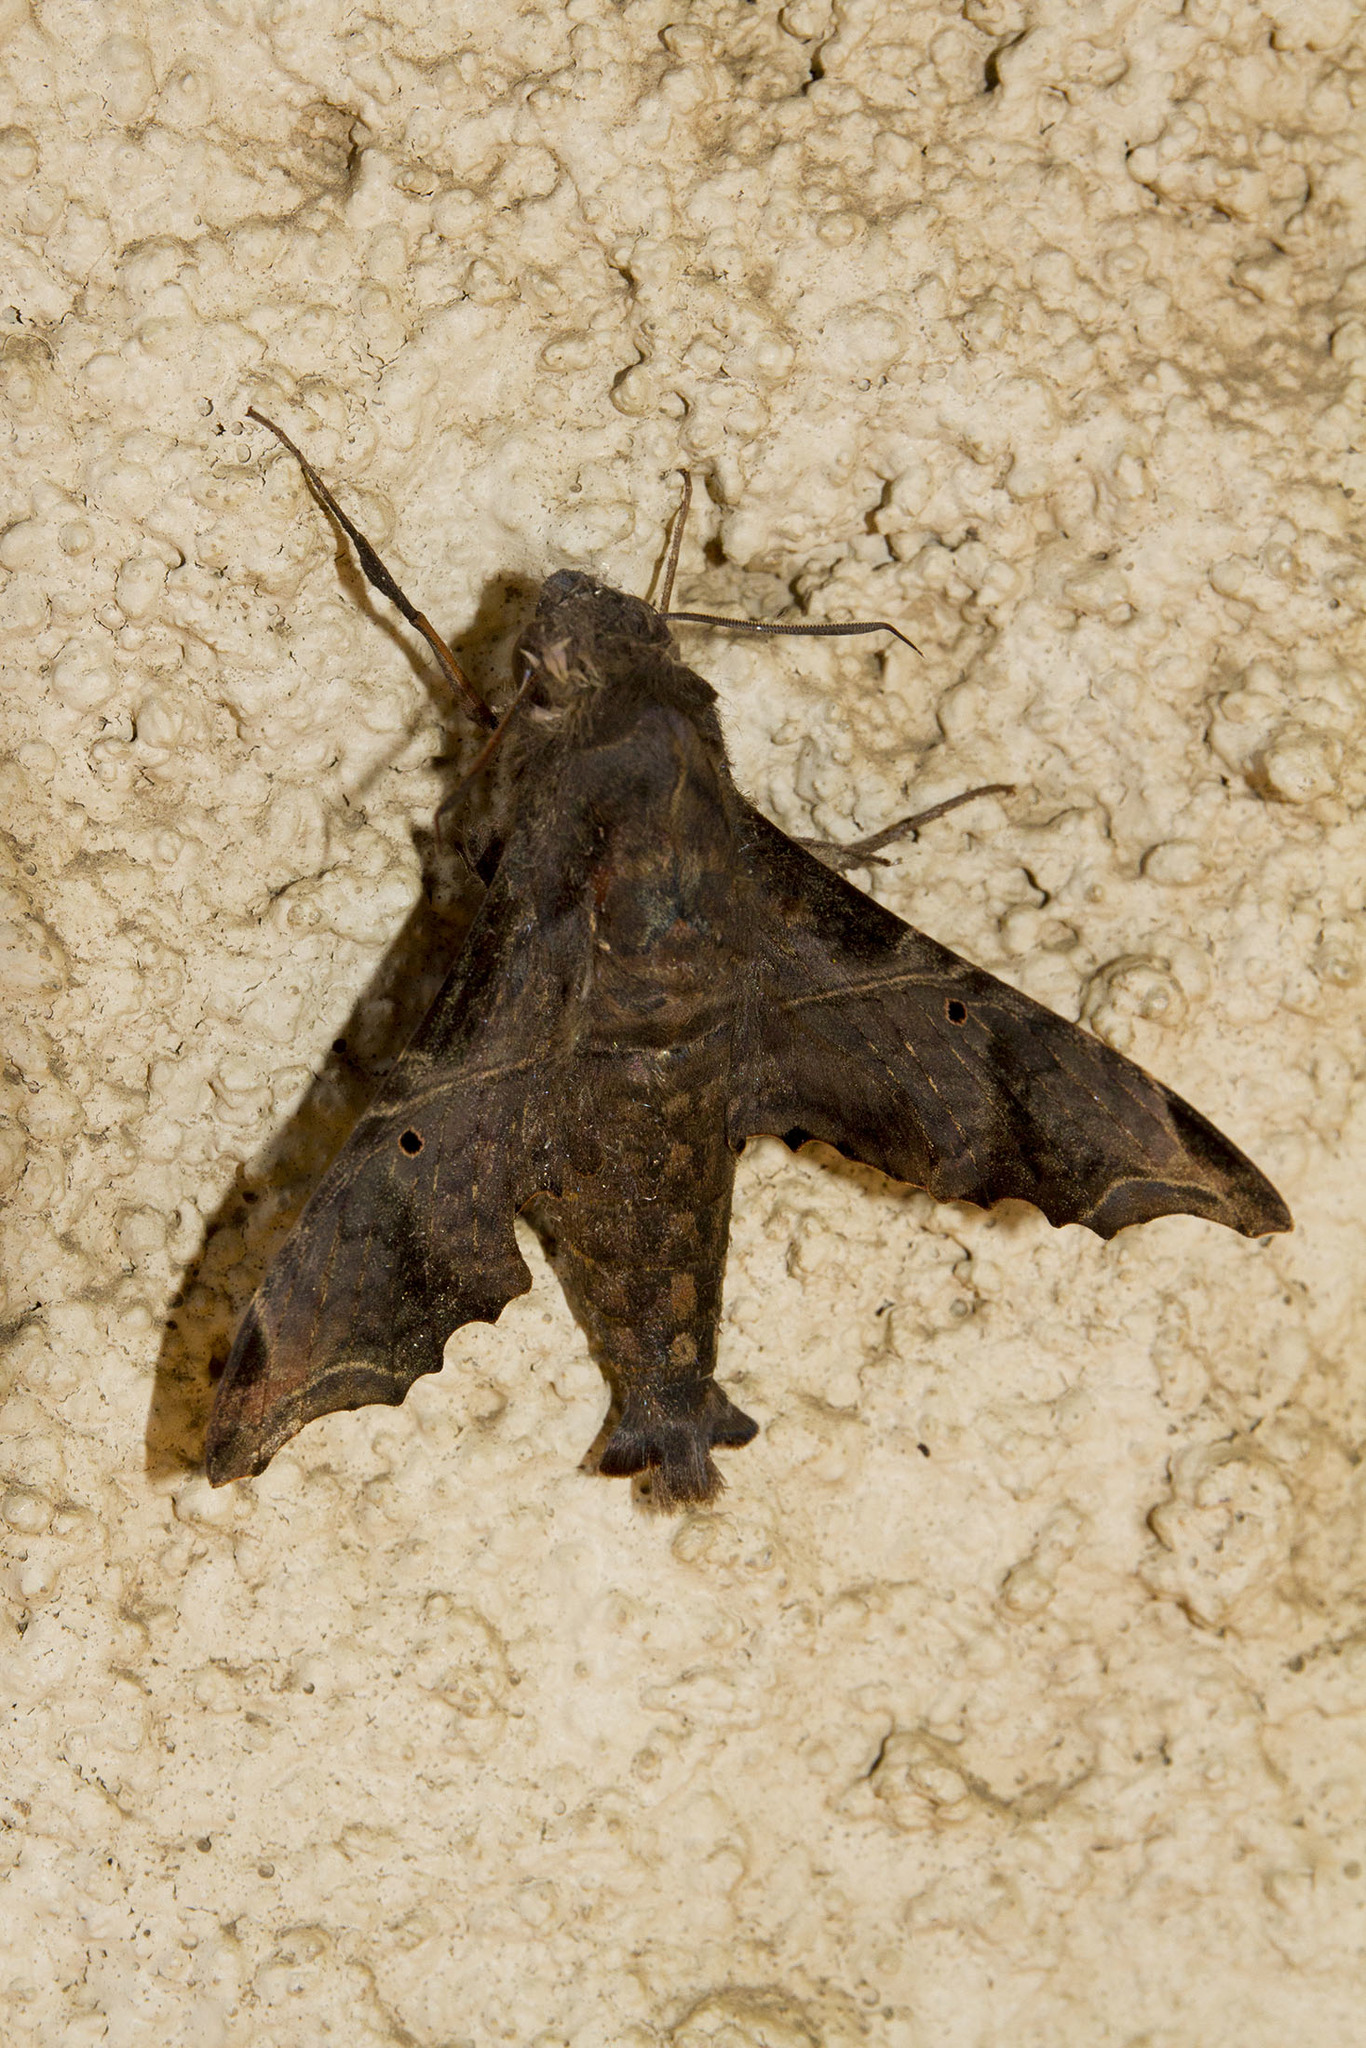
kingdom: Animalia
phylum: Arthropoda
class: Insecta
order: Lepidoptera
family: Sphingidae
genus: Enyo
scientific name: Enyo lugubris
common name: Mournful sphinx
